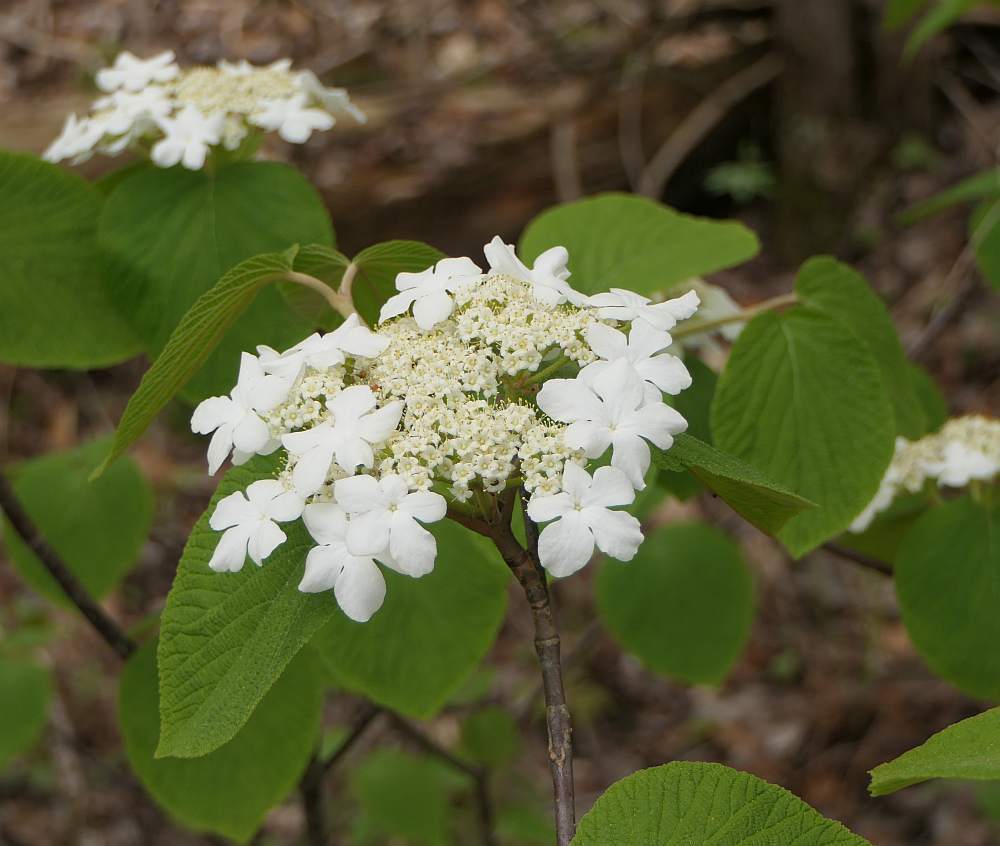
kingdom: Plantae
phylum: Tracheophyta
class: Magnoliopsida
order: Dipsacales
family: Viburnaceae
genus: Viburnum
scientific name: Viburnum lantanoides
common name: Hobblebush
